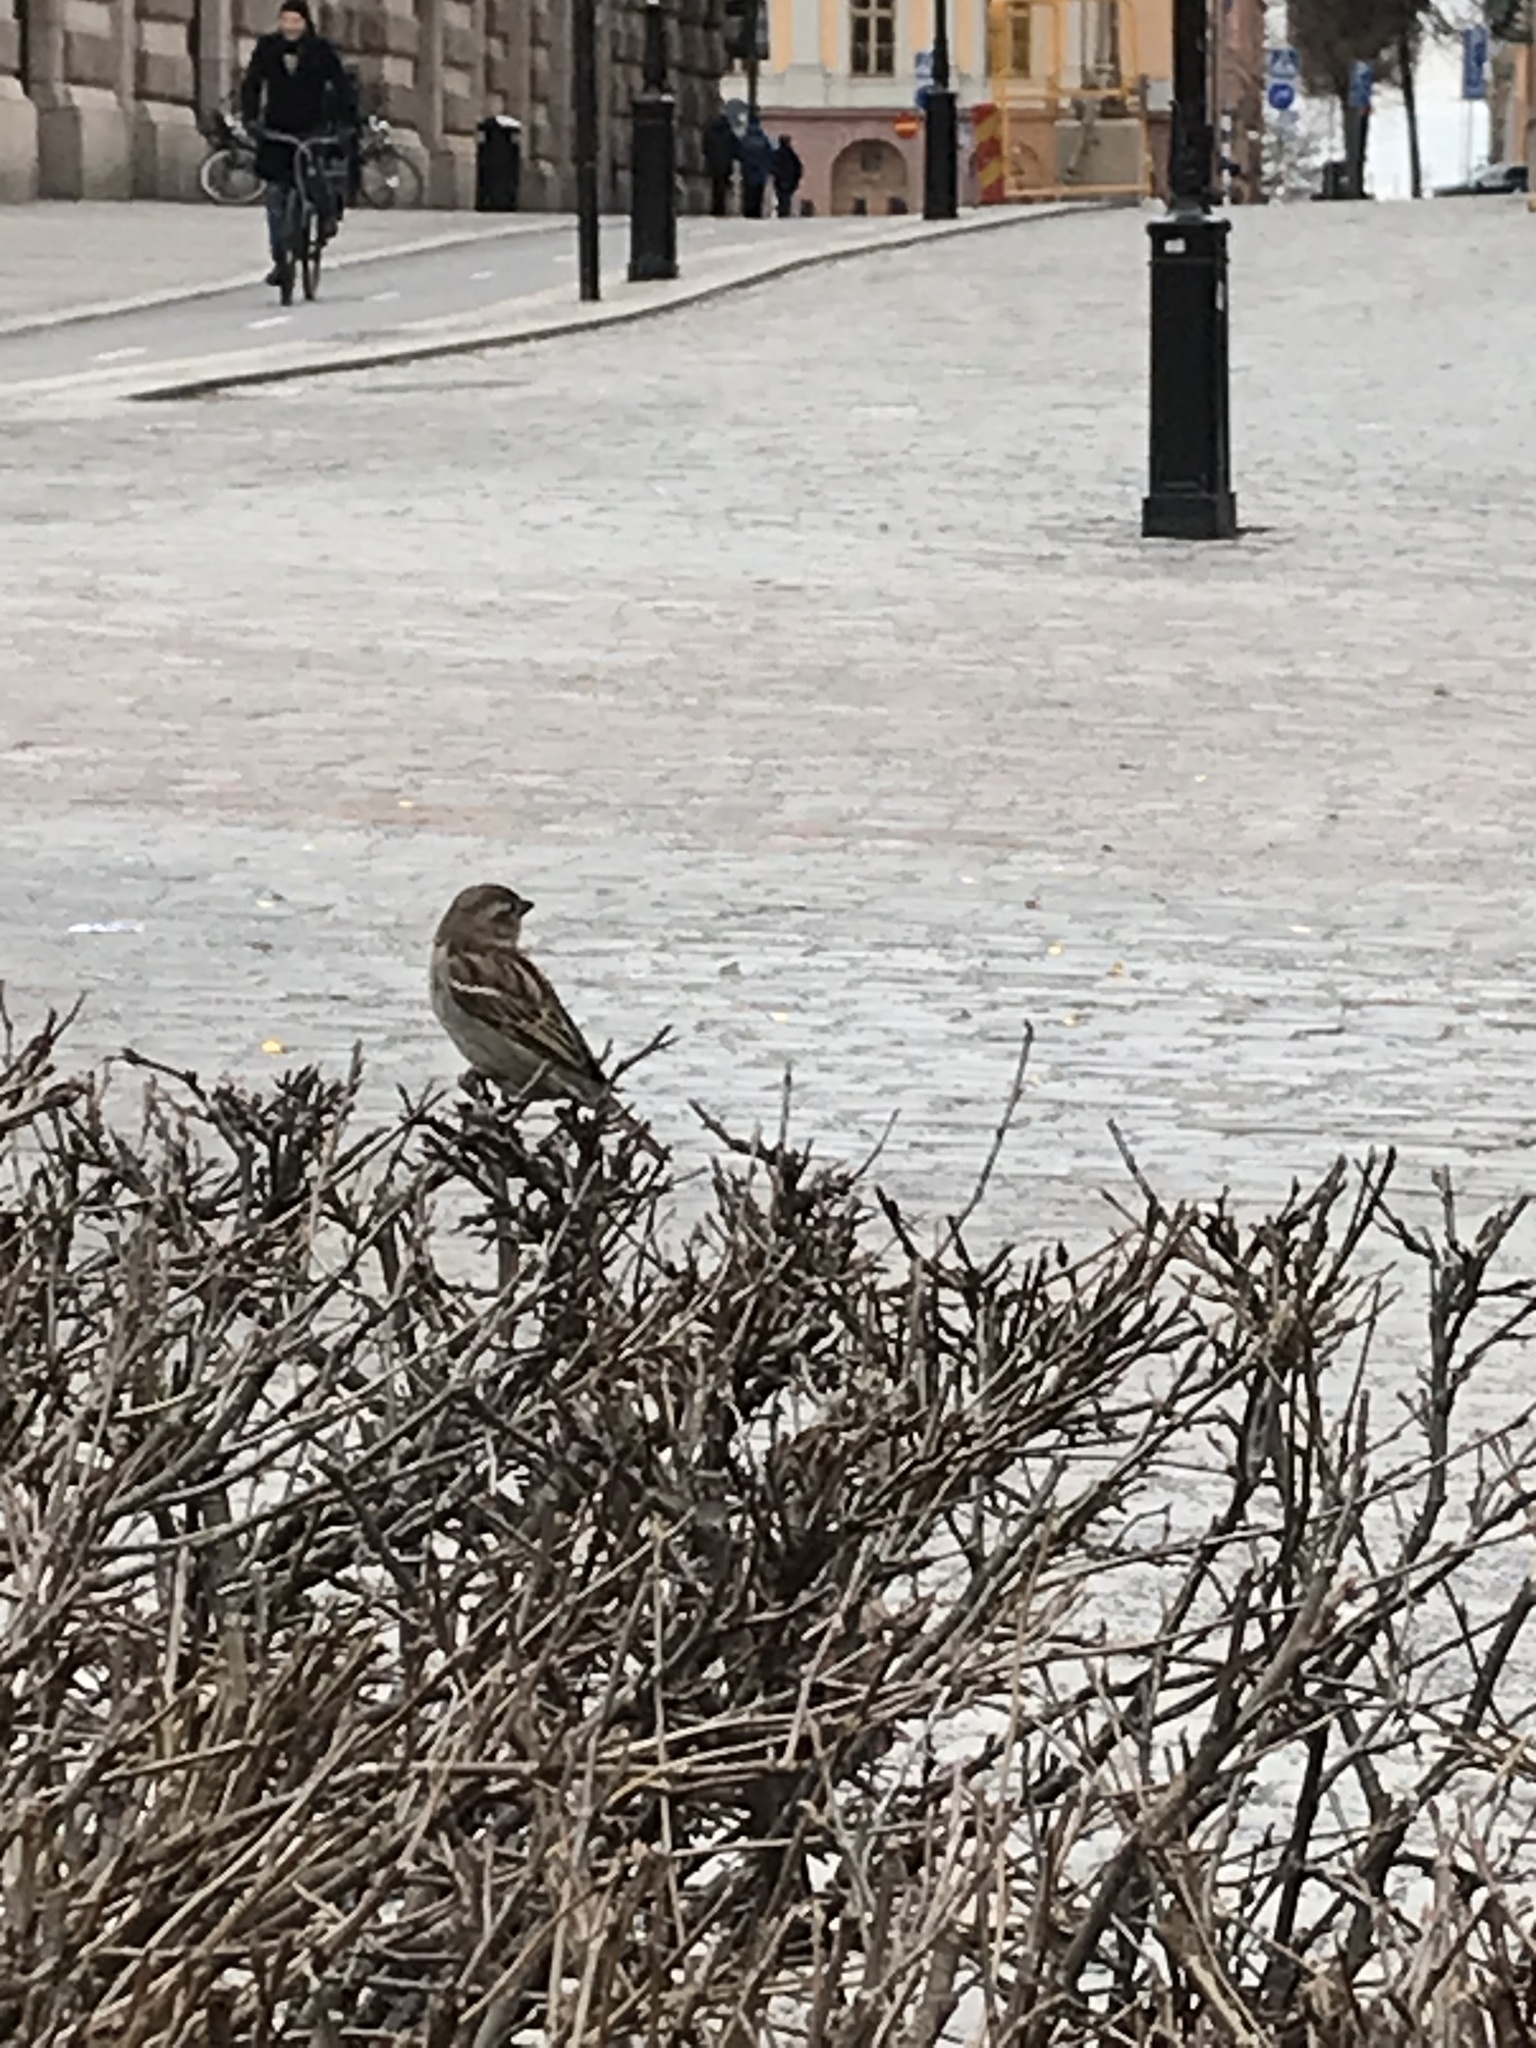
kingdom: Animalia
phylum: Chordata
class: Aves
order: Passeriformes
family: Passeridae
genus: Passer
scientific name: Passer domesticus
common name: House sparrow
